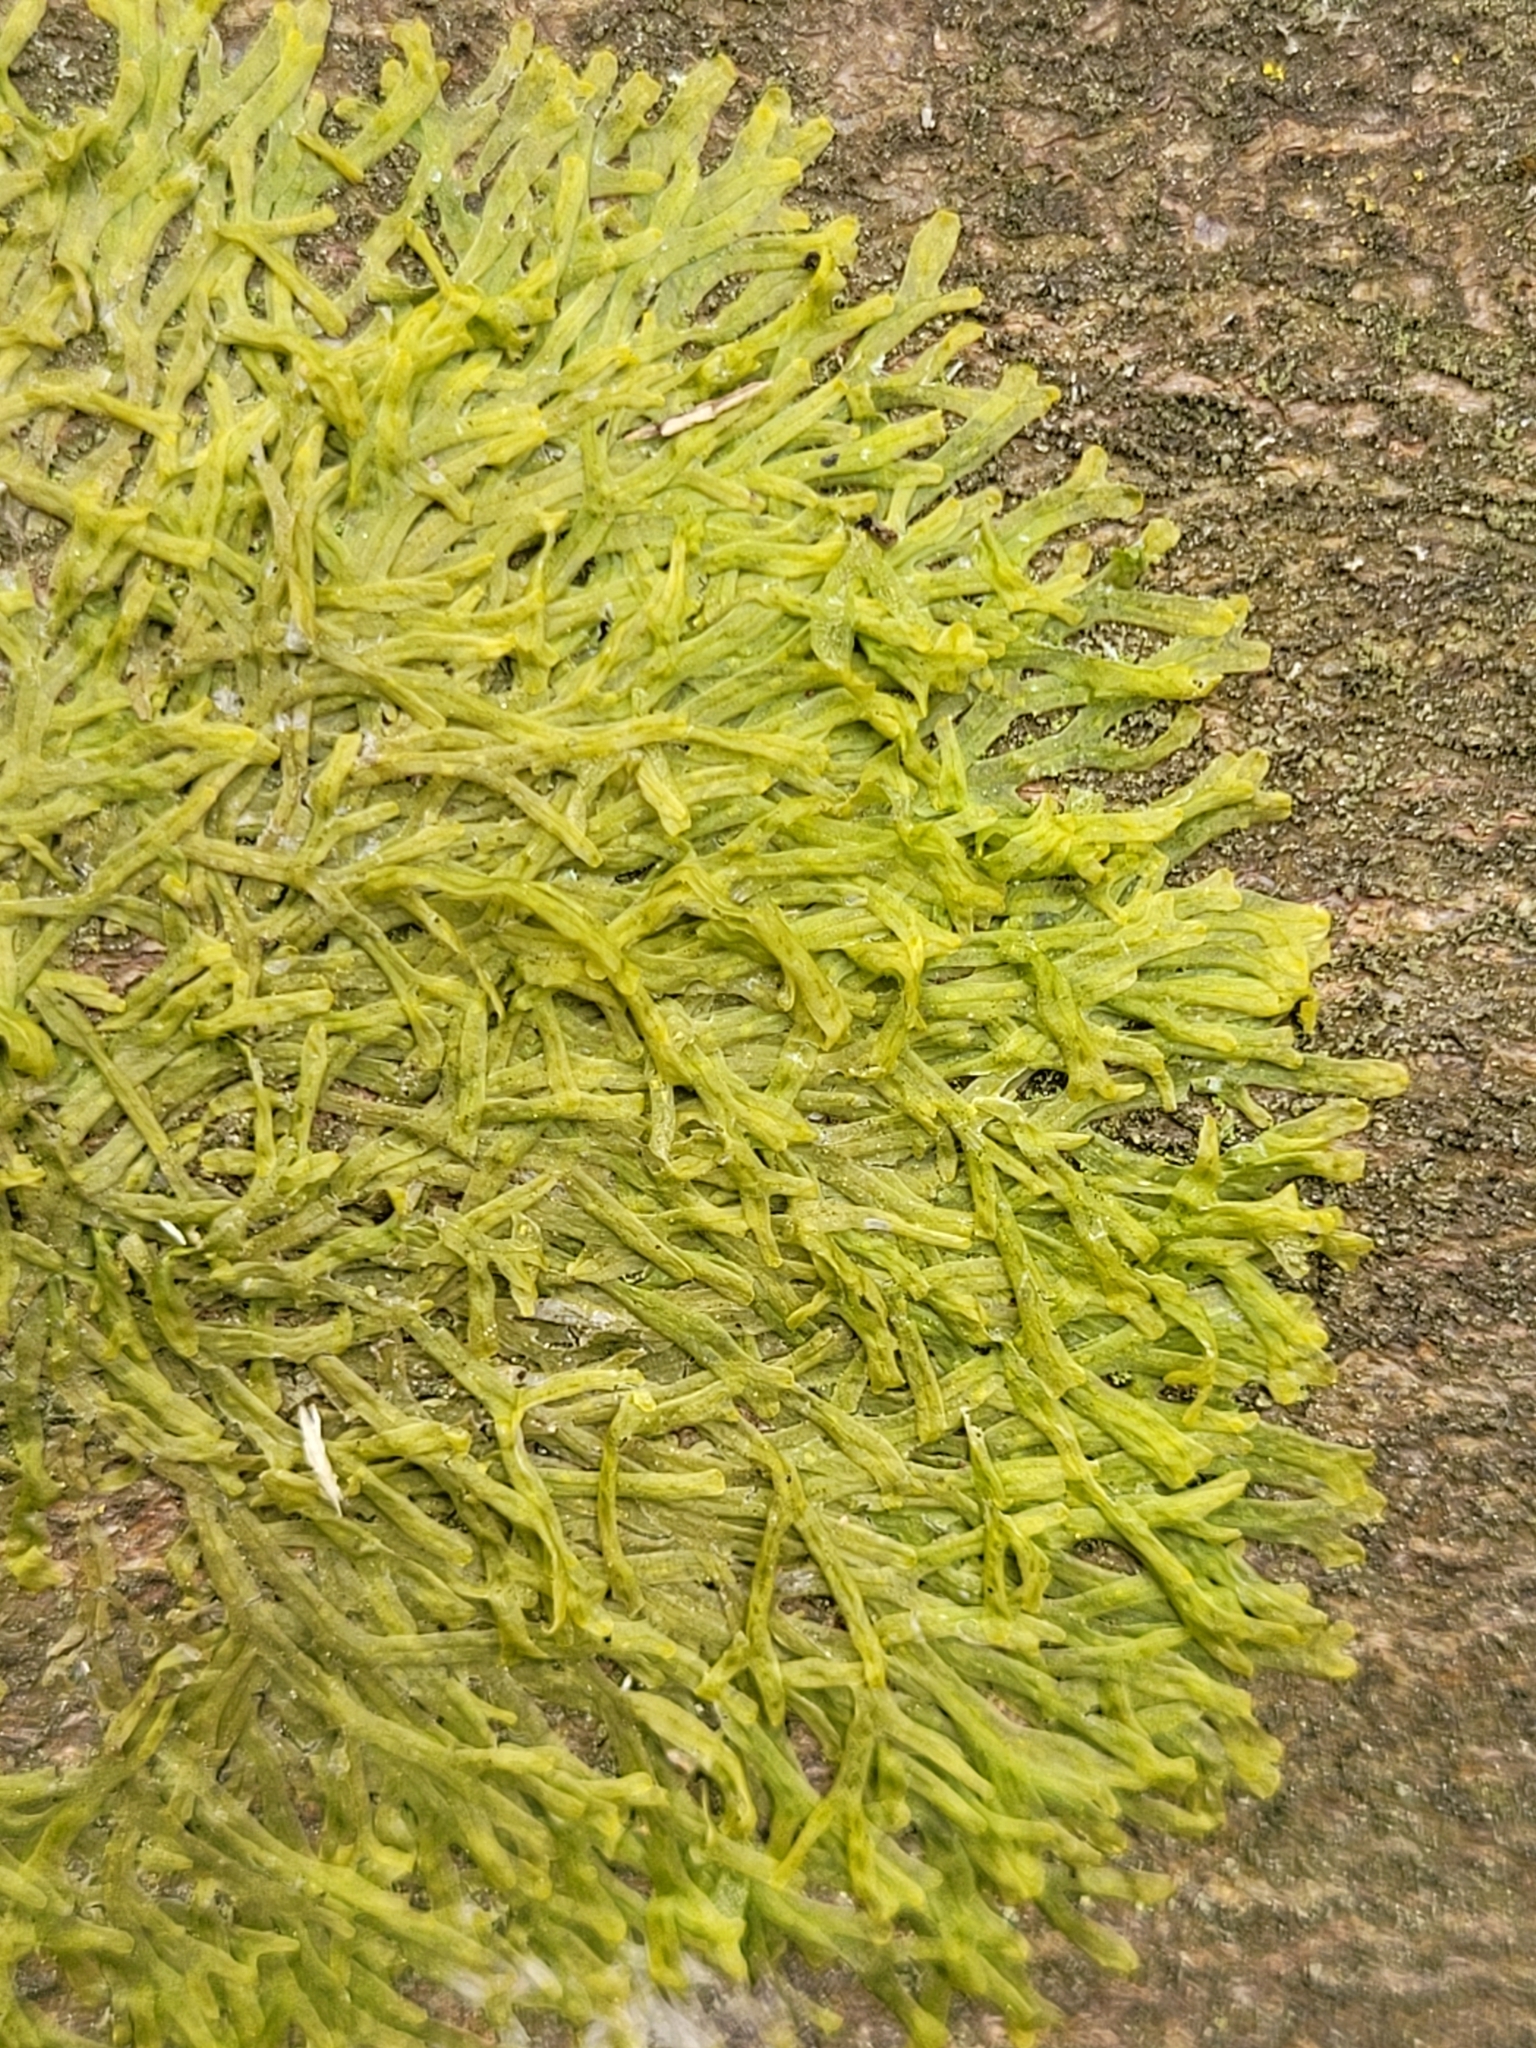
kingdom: Plantae
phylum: Marchantiophyta
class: Jungermanniopsida
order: Metzgeriales
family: Metzgeriaceae
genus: Metzgeria
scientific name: Metzgeria furcata
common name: Forked veilwort
